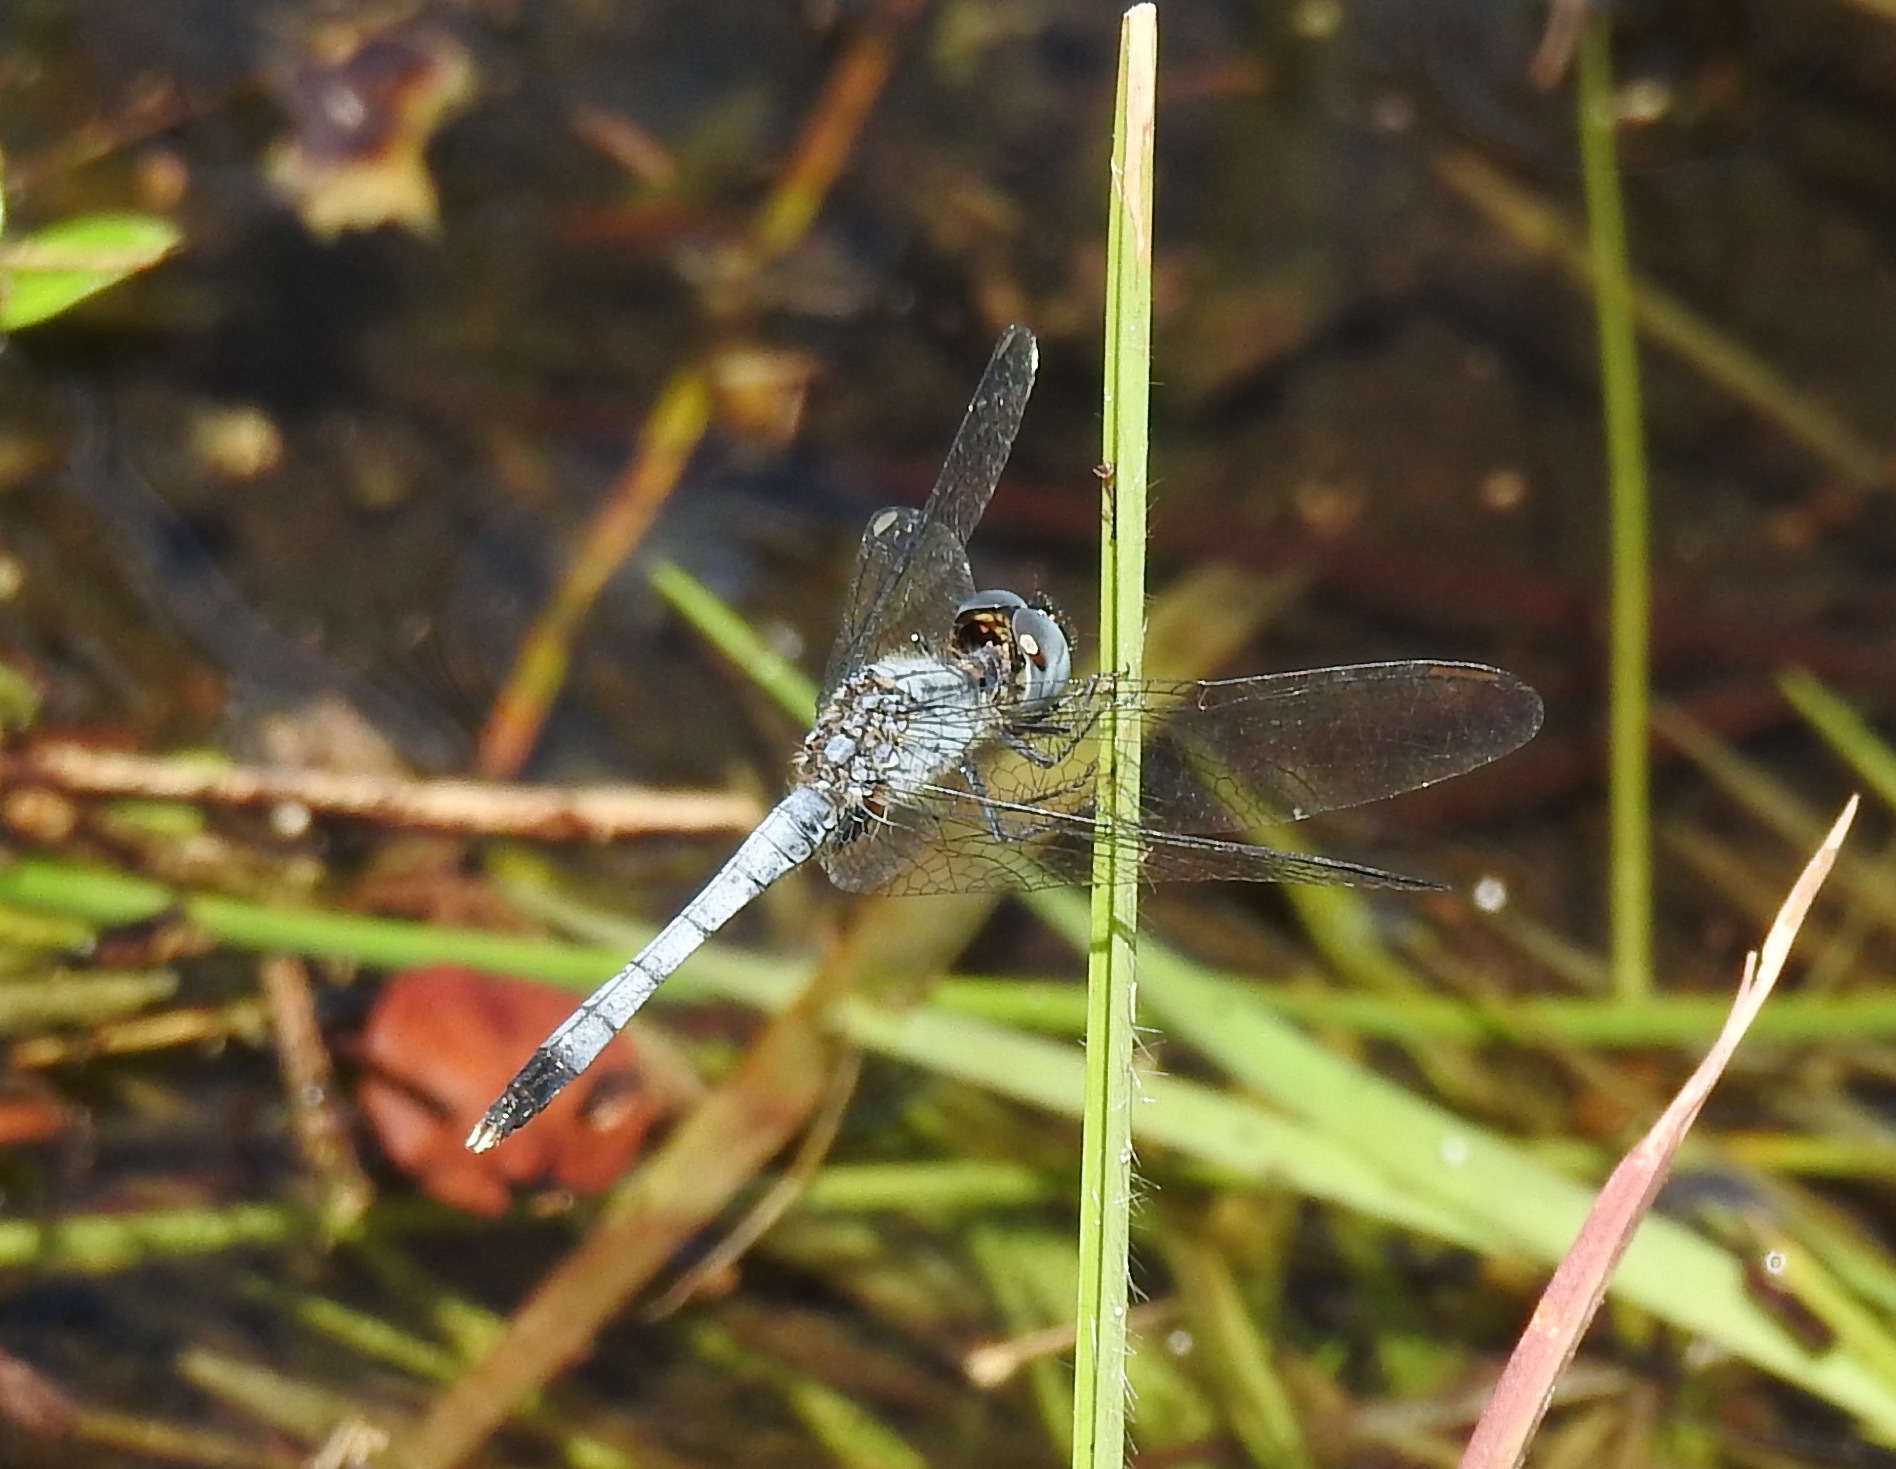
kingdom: Animalia
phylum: Arthropoda
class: Insecta
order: Odonata
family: Libellulidae
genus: Erythrodiplax
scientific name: Erythrodiplax minuscula
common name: Little blue dragonlet
